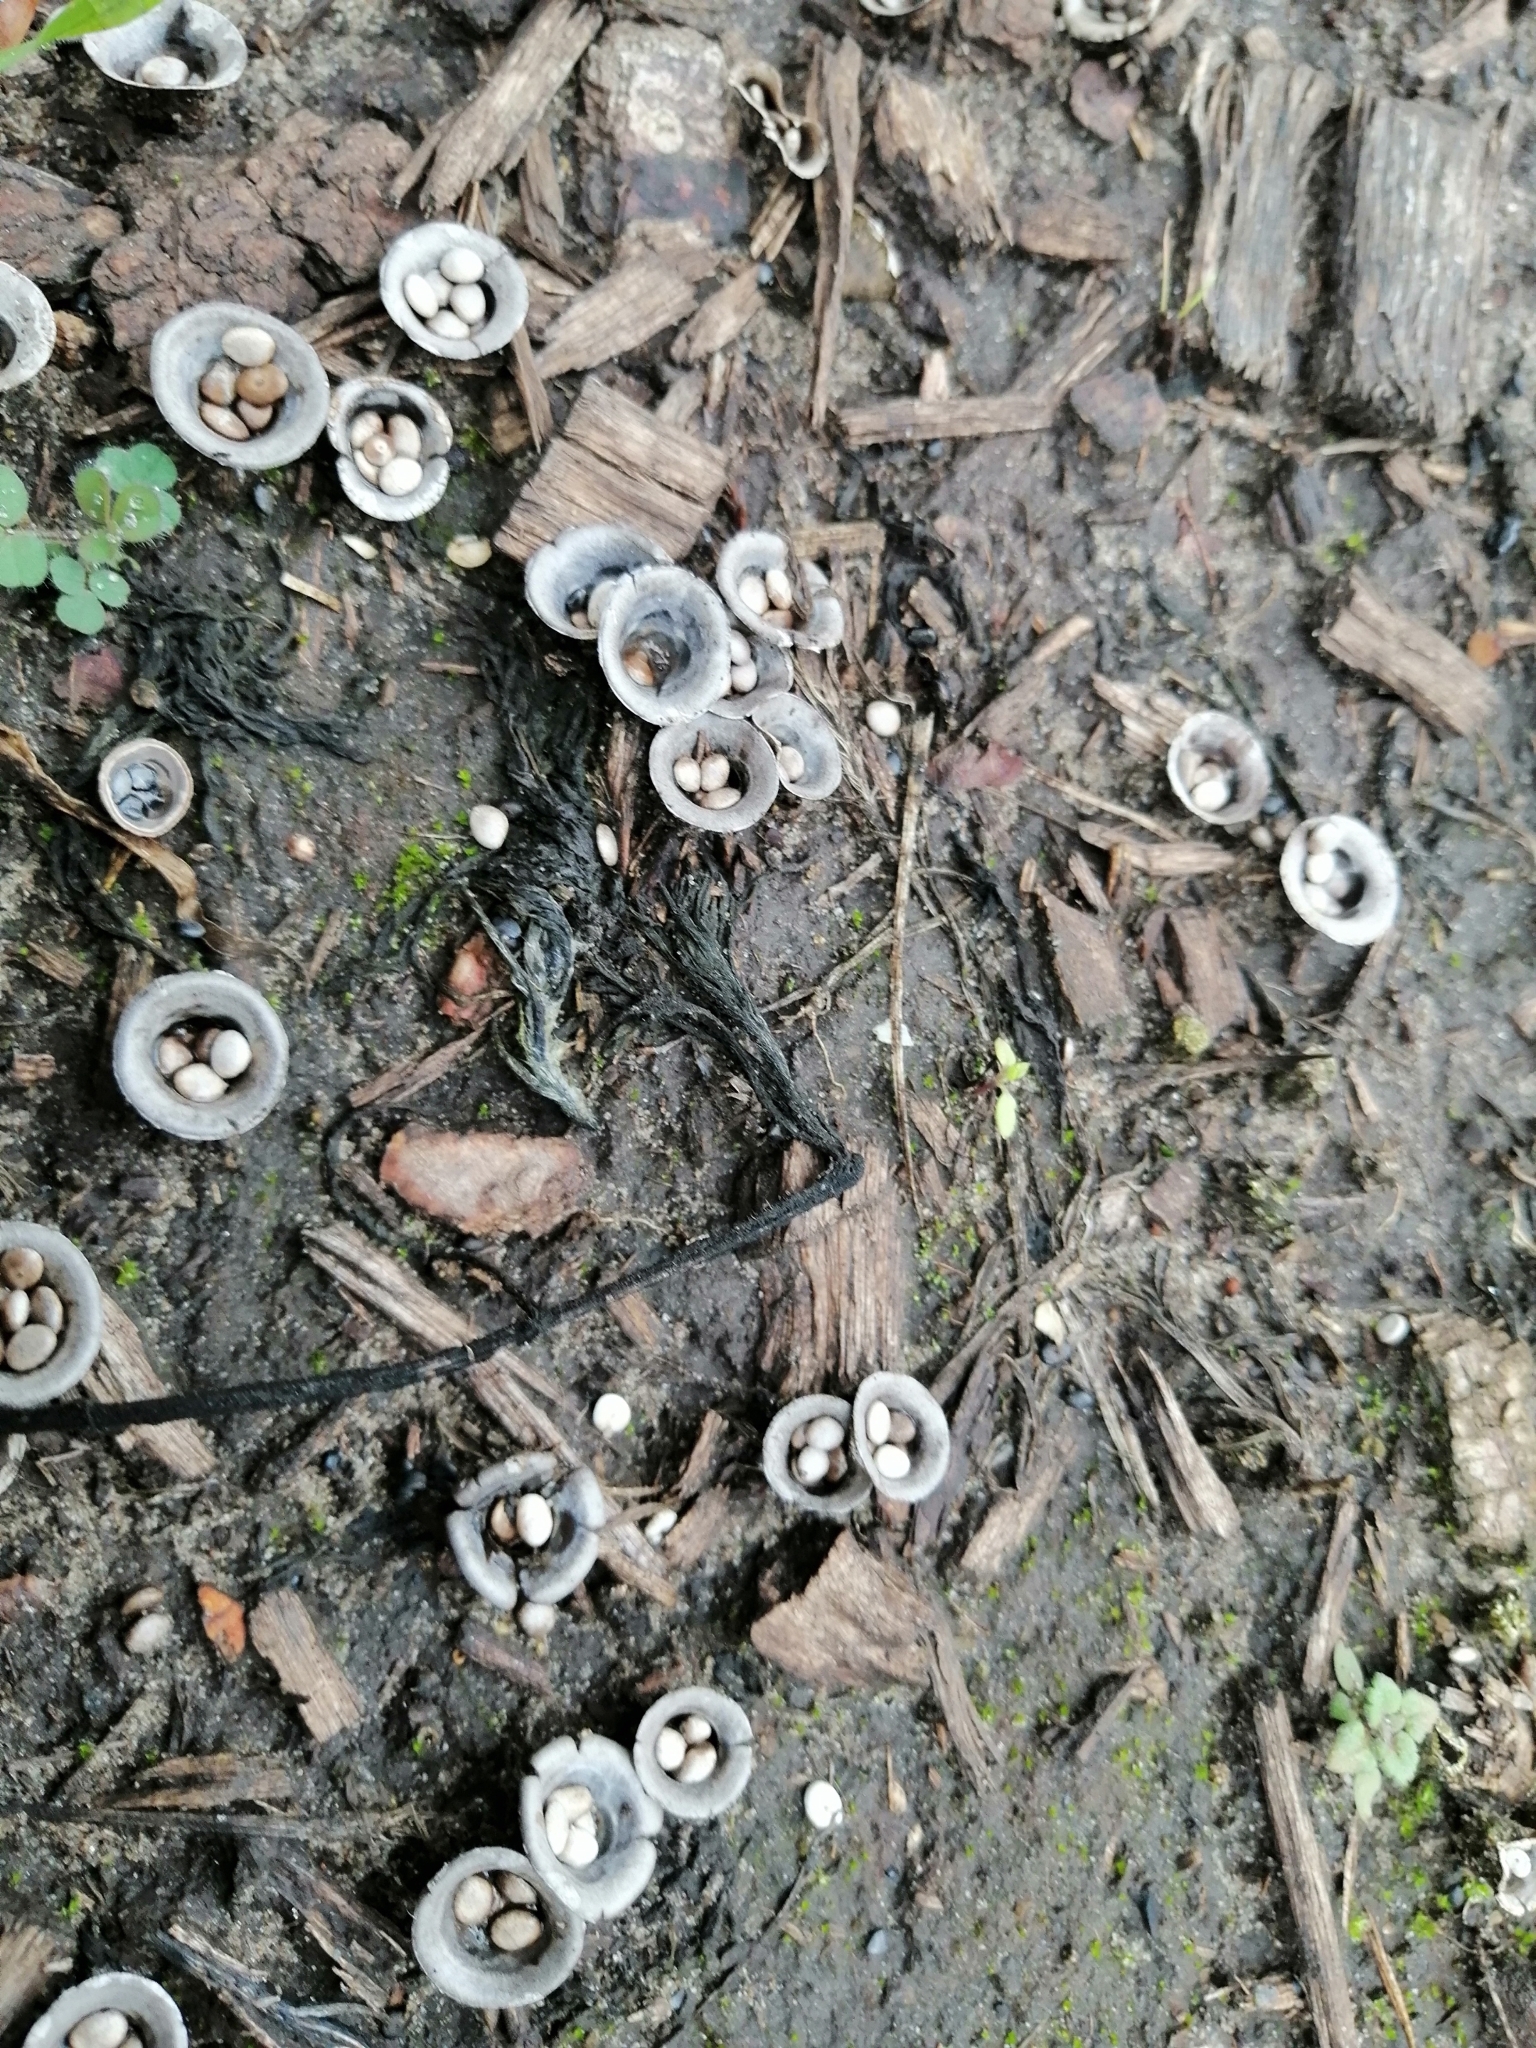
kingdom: Fungi
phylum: Basidiomycota
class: Agaricomycetes
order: Agaricales
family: Agaricaceae
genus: Cyathus
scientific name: Cyathus olla
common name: Field bird's nest
